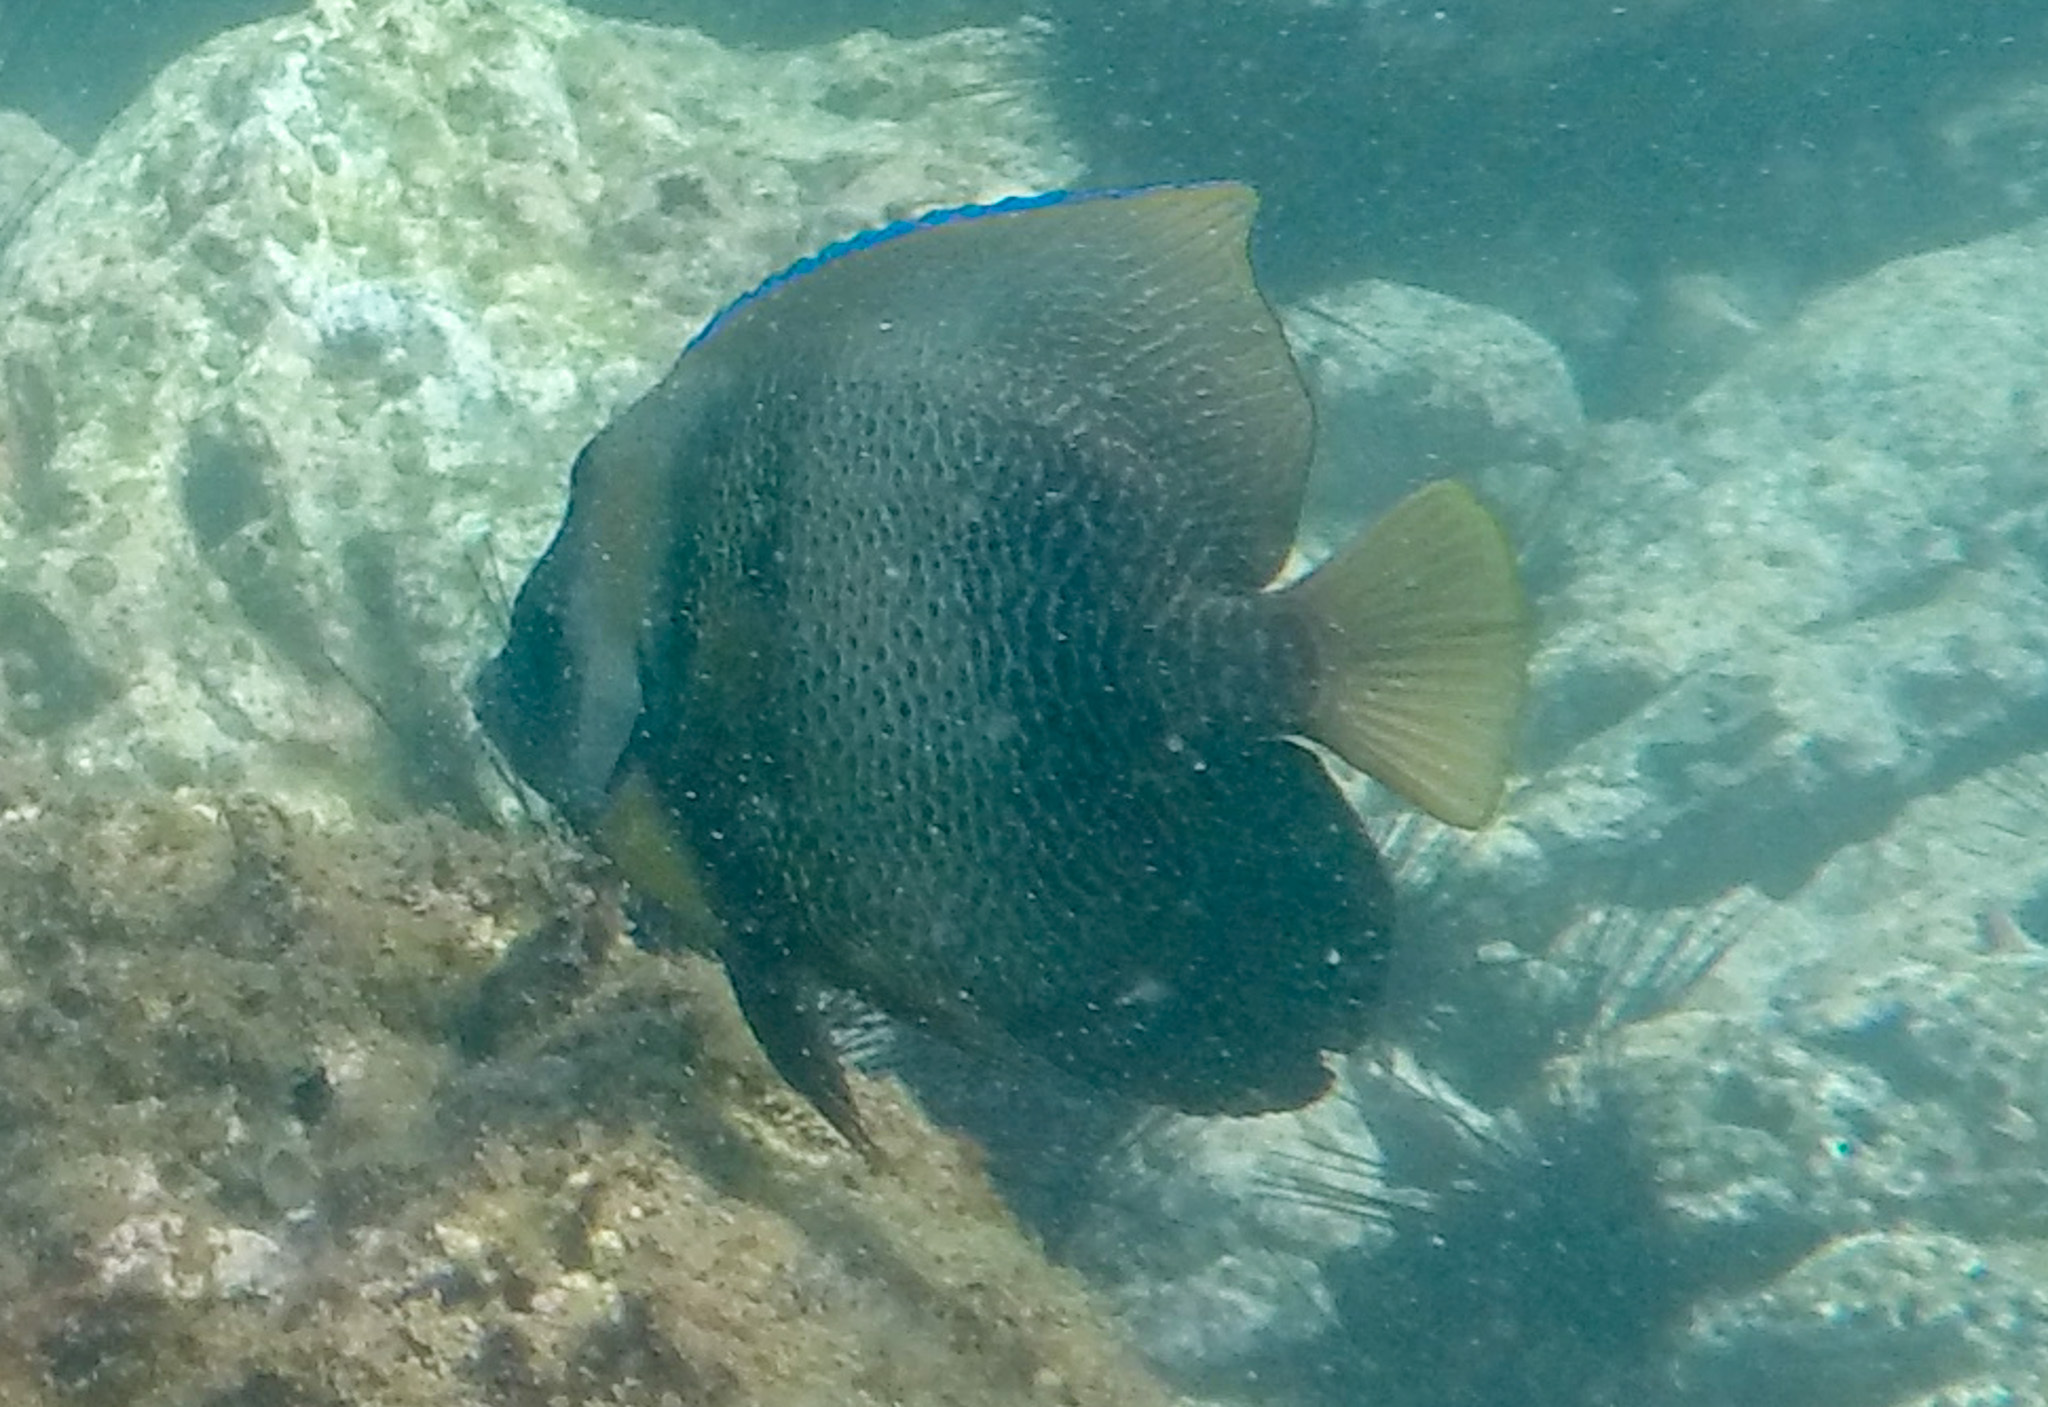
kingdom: Animalia
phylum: Chordata
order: Perciformes
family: Pomacanthidae
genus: Pomacanthus
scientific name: Pomacanthus zonipectus
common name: Cortez angelfish
